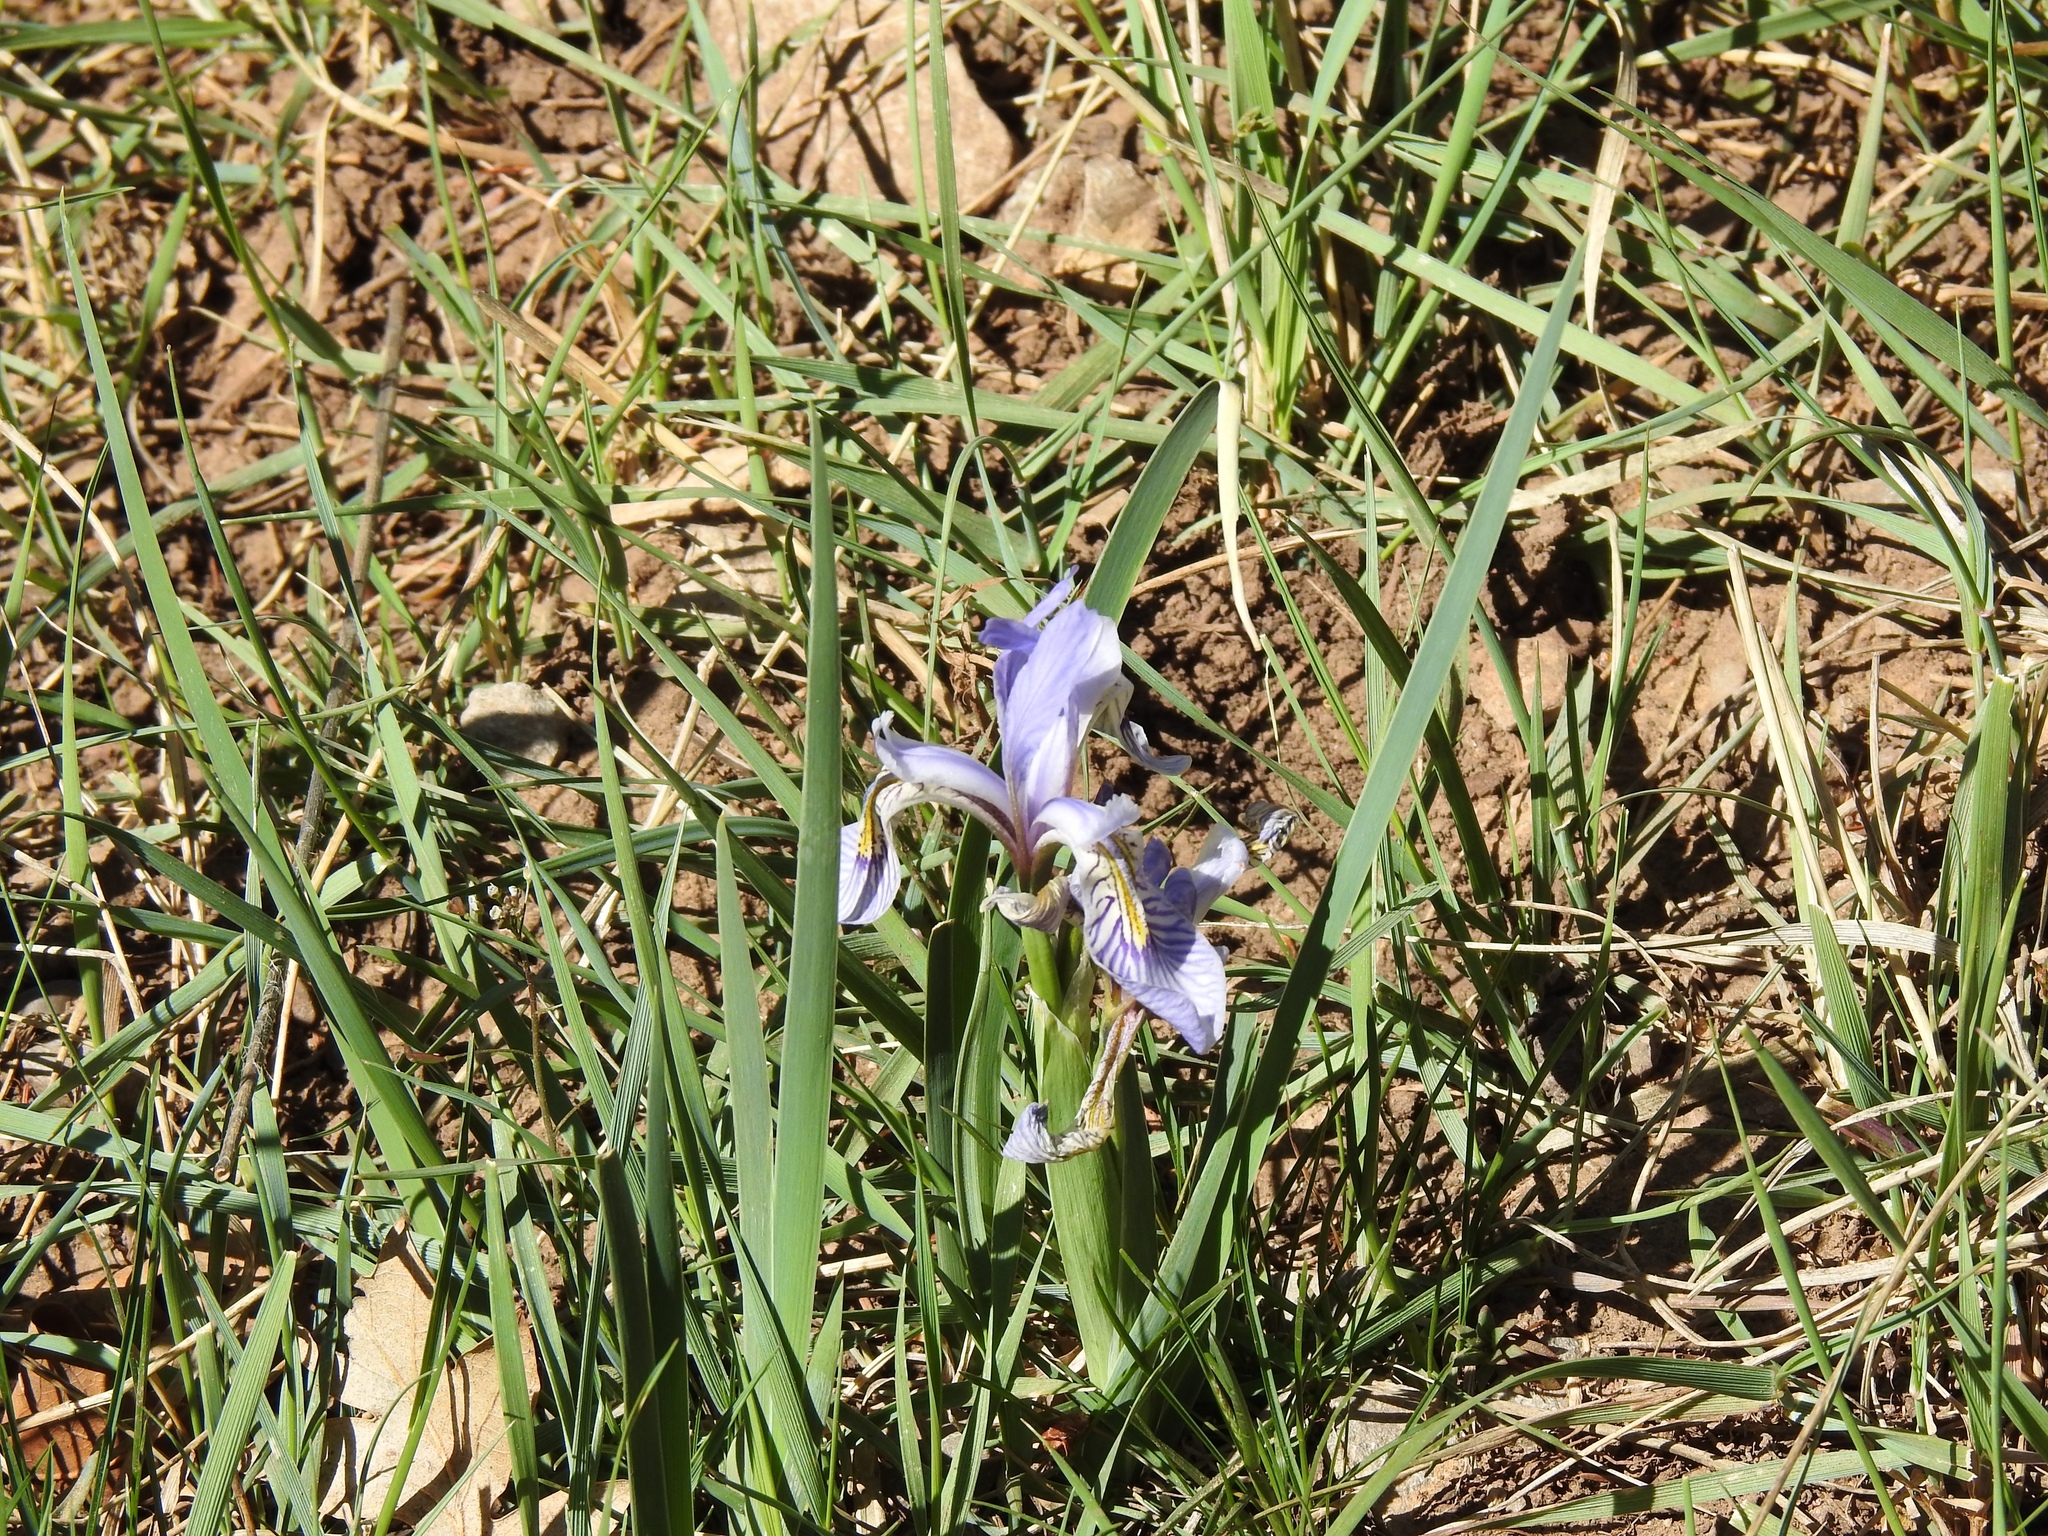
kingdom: Plantae
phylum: Tracheophyta
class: Liliopsida
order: Asparagales
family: Iridaceae
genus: Iris
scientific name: Iris missouriensis
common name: Rocky mountain iris
